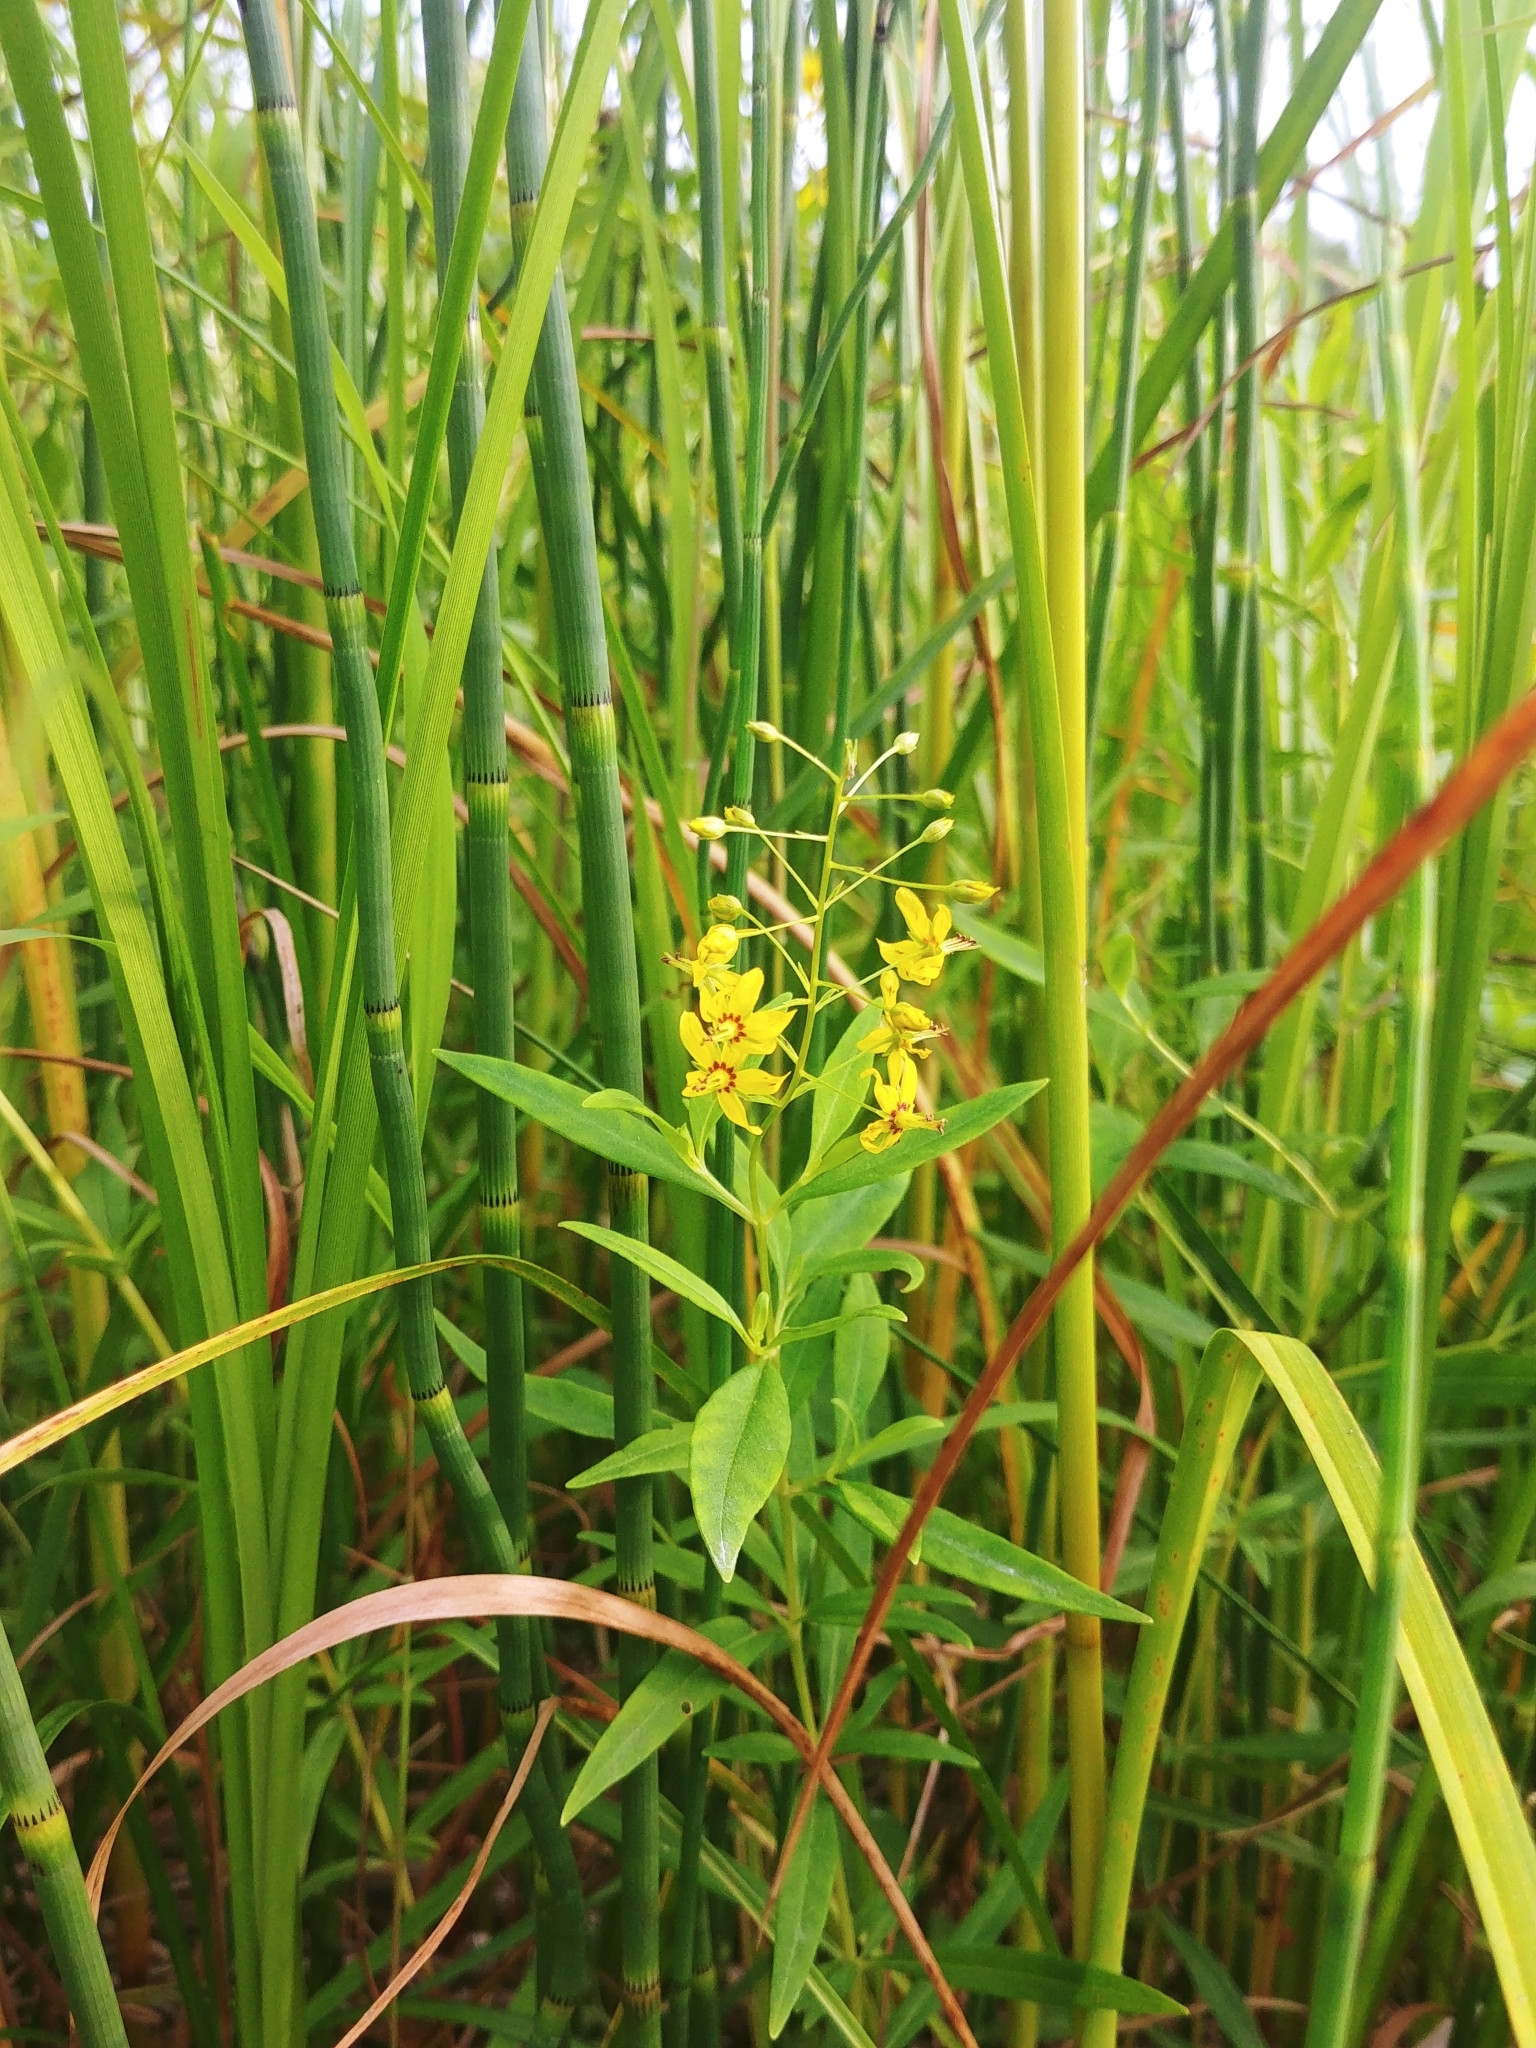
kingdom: Plantae
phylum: Tracheophyta
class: Magnoliopsida
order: Ericales
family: Primulaceae
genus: Lysimachia
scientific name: Lysimachia terrestris
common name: Lake loosestrife
